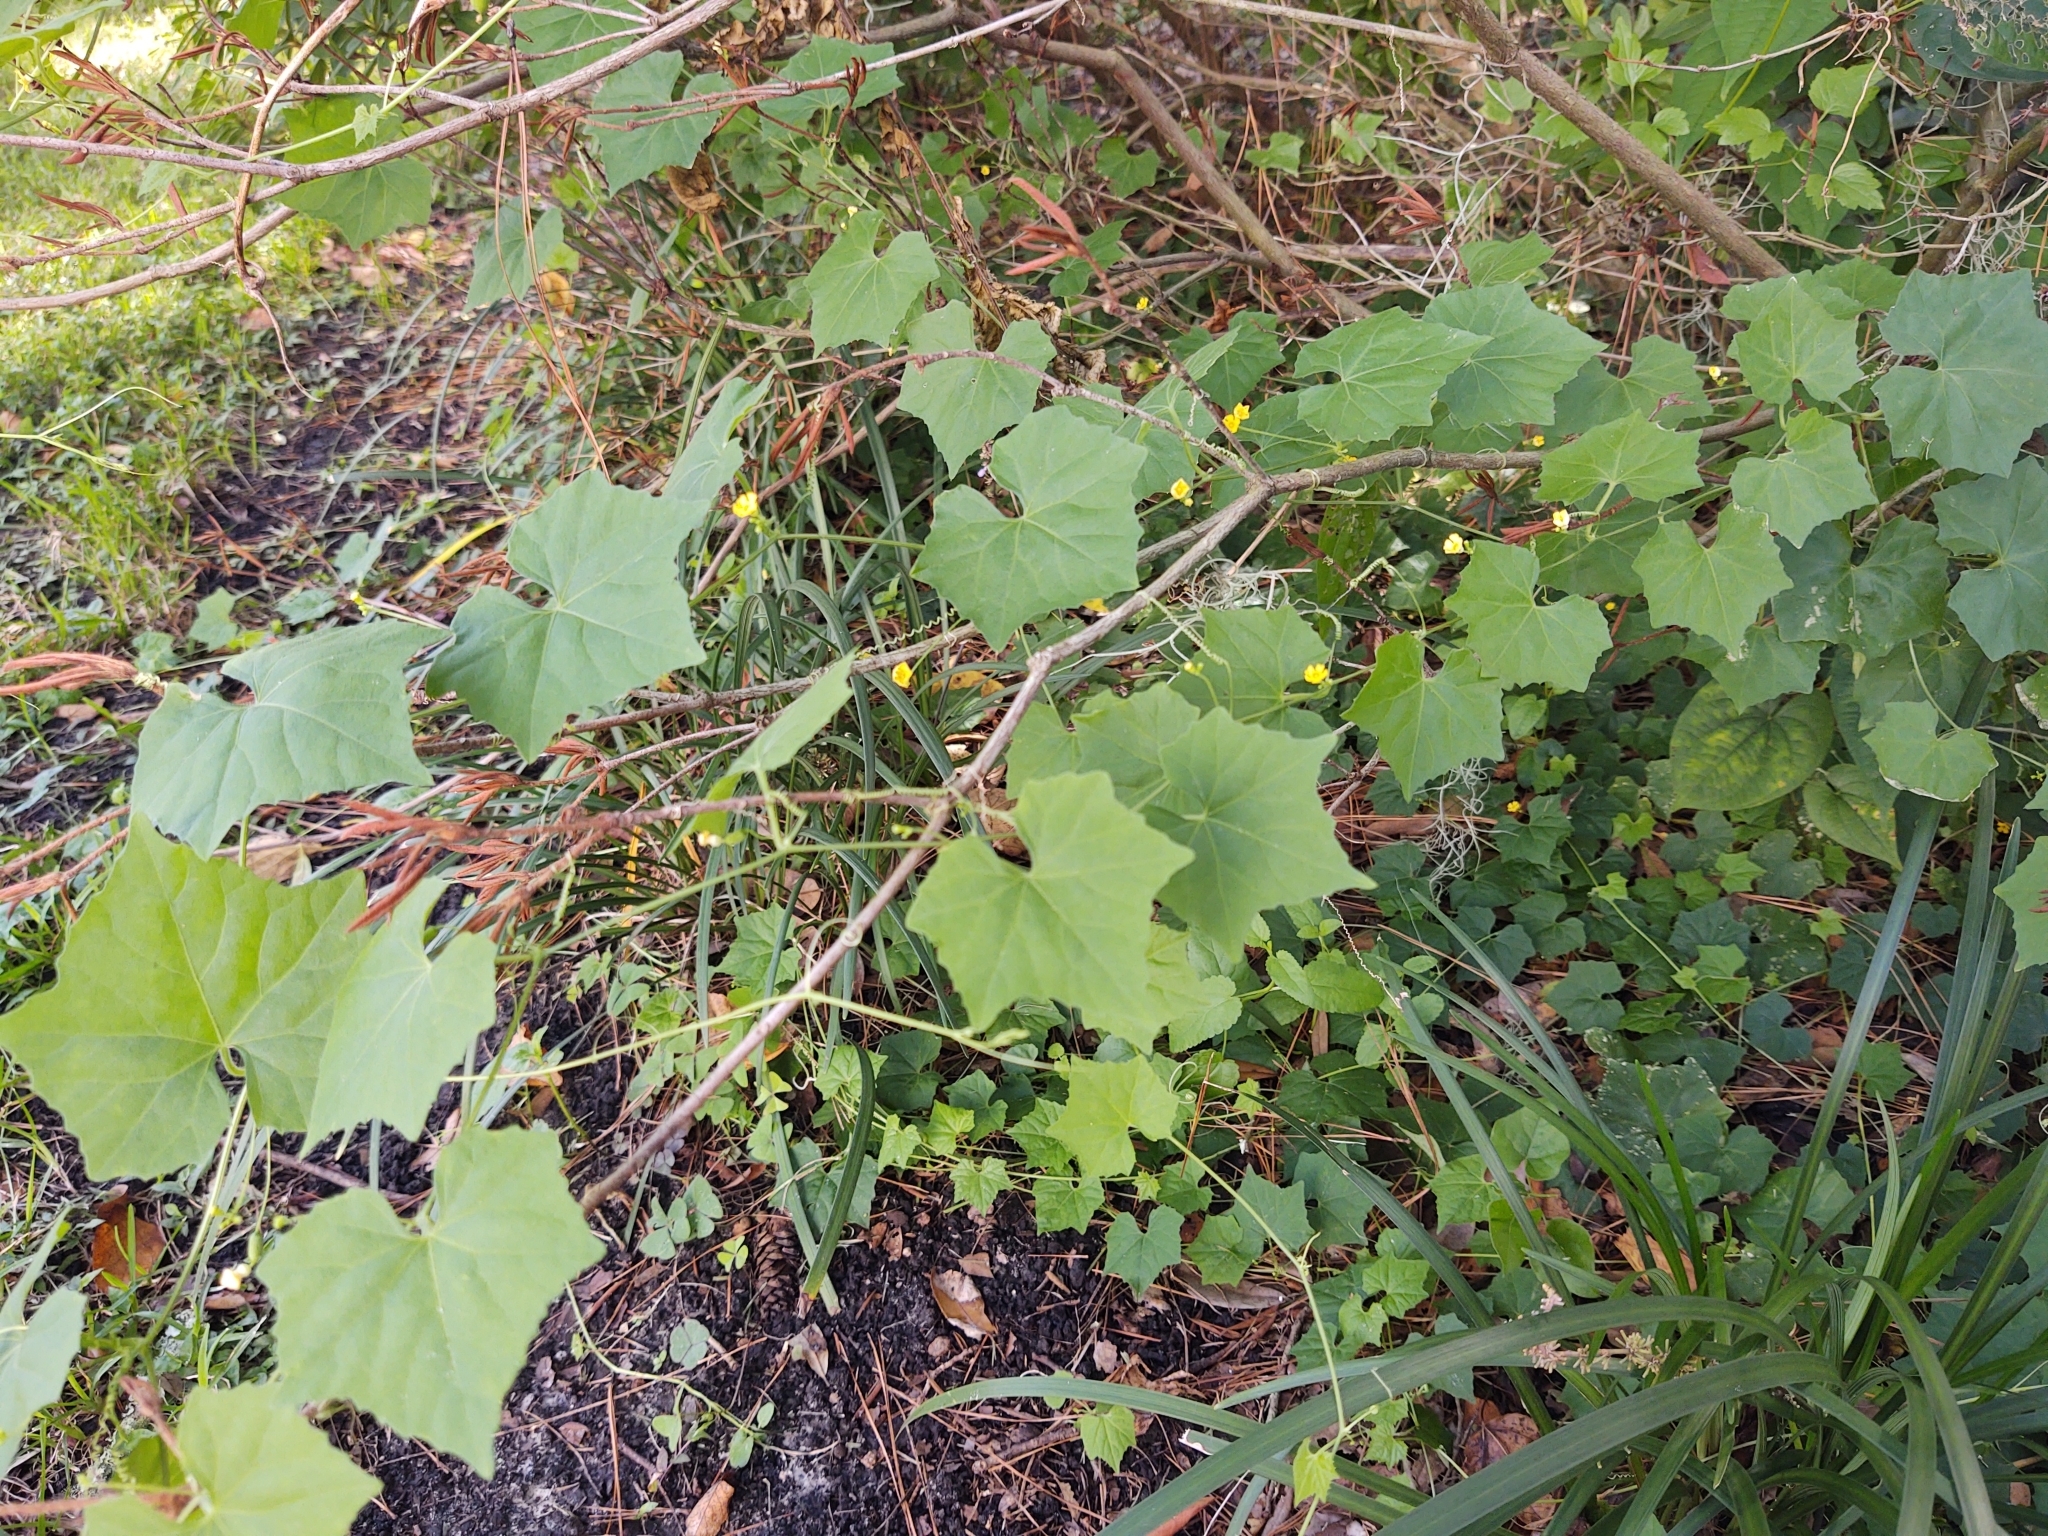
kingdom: Plantae
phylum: Tracheophyta
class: Magnoliopsida
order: Cucurbitales
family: Cucurbitaceae
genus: Melothria
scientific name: Melothria pendula
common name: Creeping-cucumber
